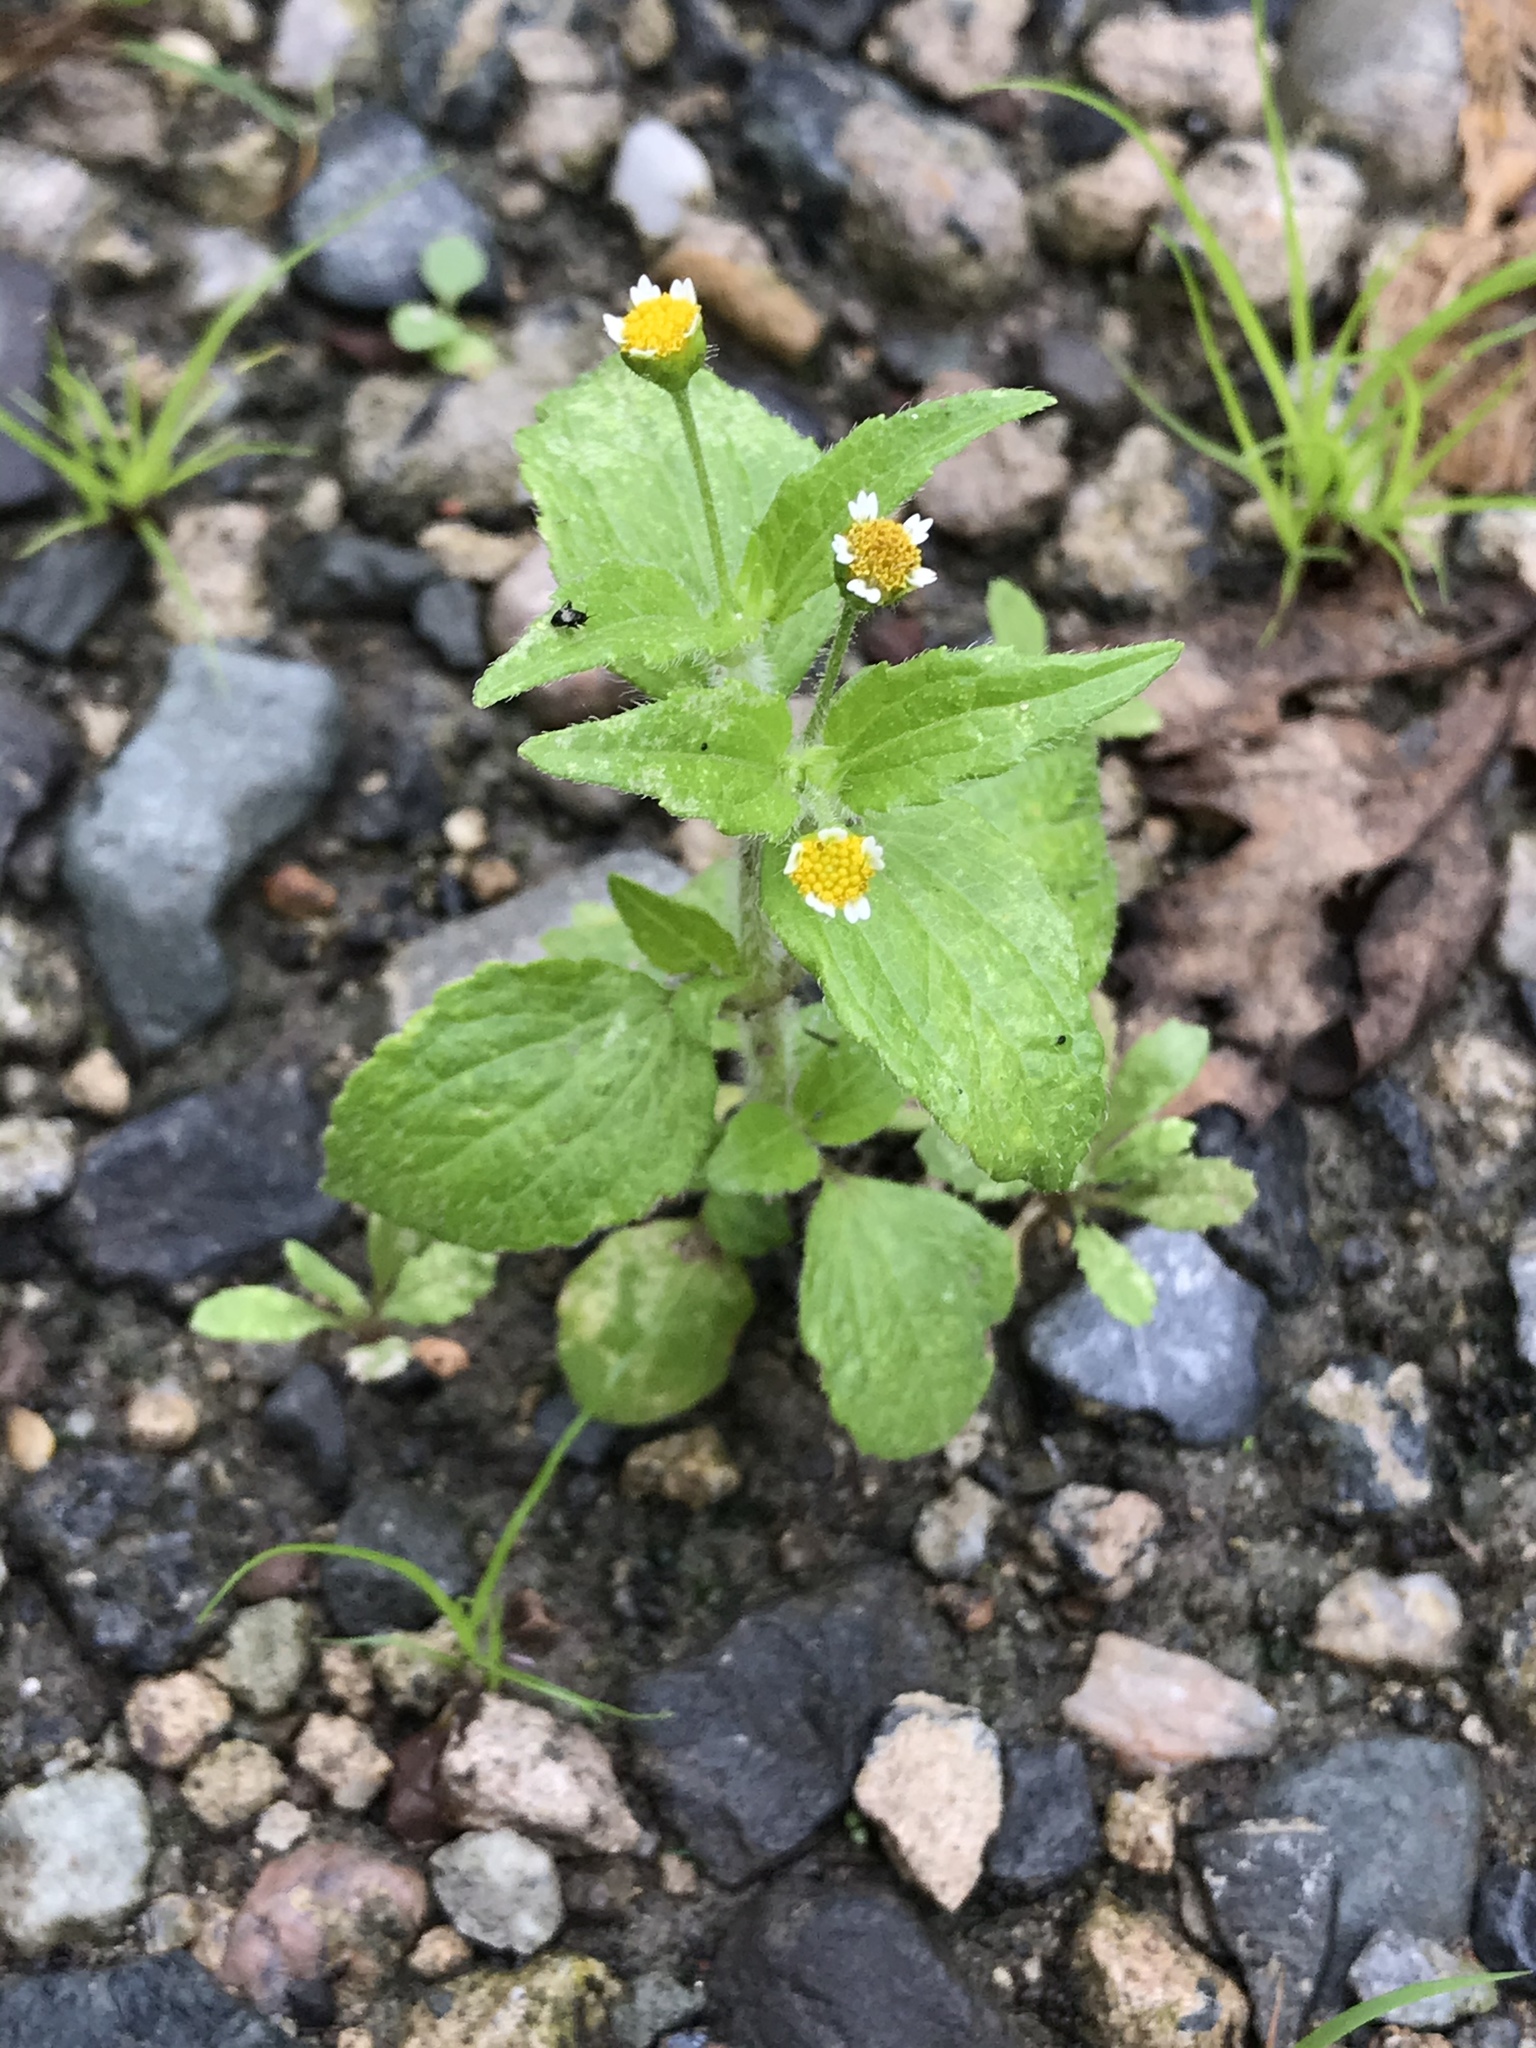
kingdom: Plantae
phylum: Tracheophyta
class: Magnoliopsida
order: Asterales
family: Asteraceae
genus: Galinsoga
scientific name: Galinsoga quadriradiata
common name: Shaggy soldier
